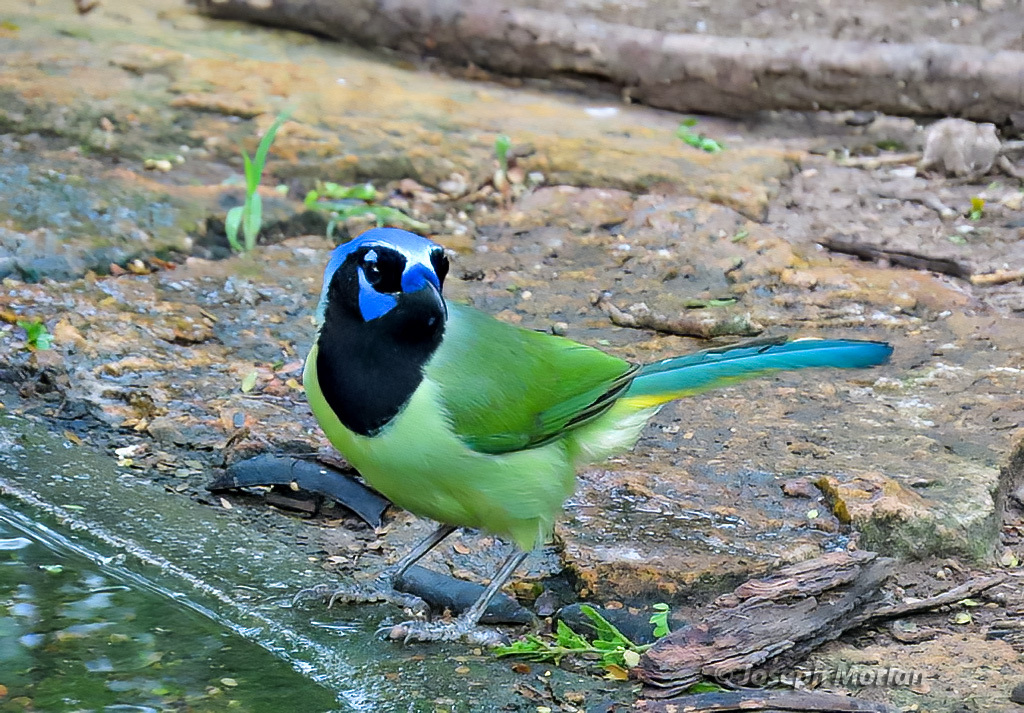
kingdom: Animalia
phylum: Chordata
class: Aves
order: Passeriformes
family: Corvidae
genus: Cyanocorax
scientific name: Cyanocorax yncas
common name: Green jay
